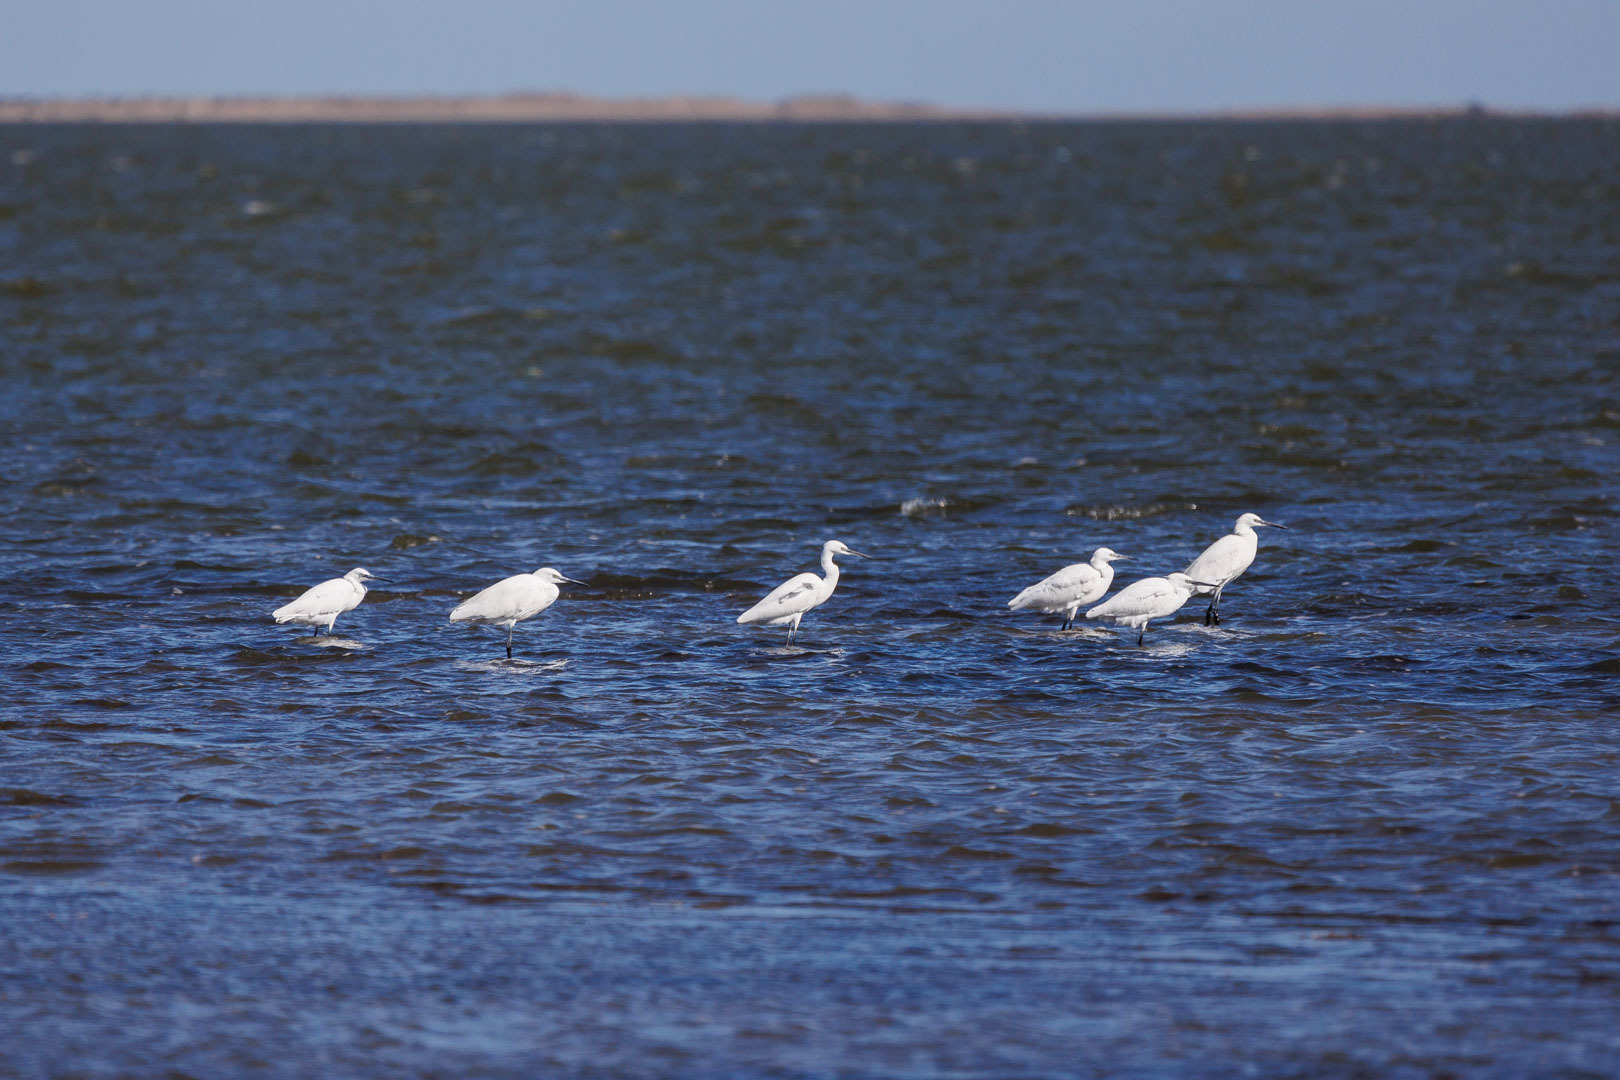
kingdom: Animalia
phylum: Chordata
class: Aves
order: Pelecaniformes
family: Ardeidae
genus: Egretta
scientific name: Egretta garzetta
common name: Little egret
